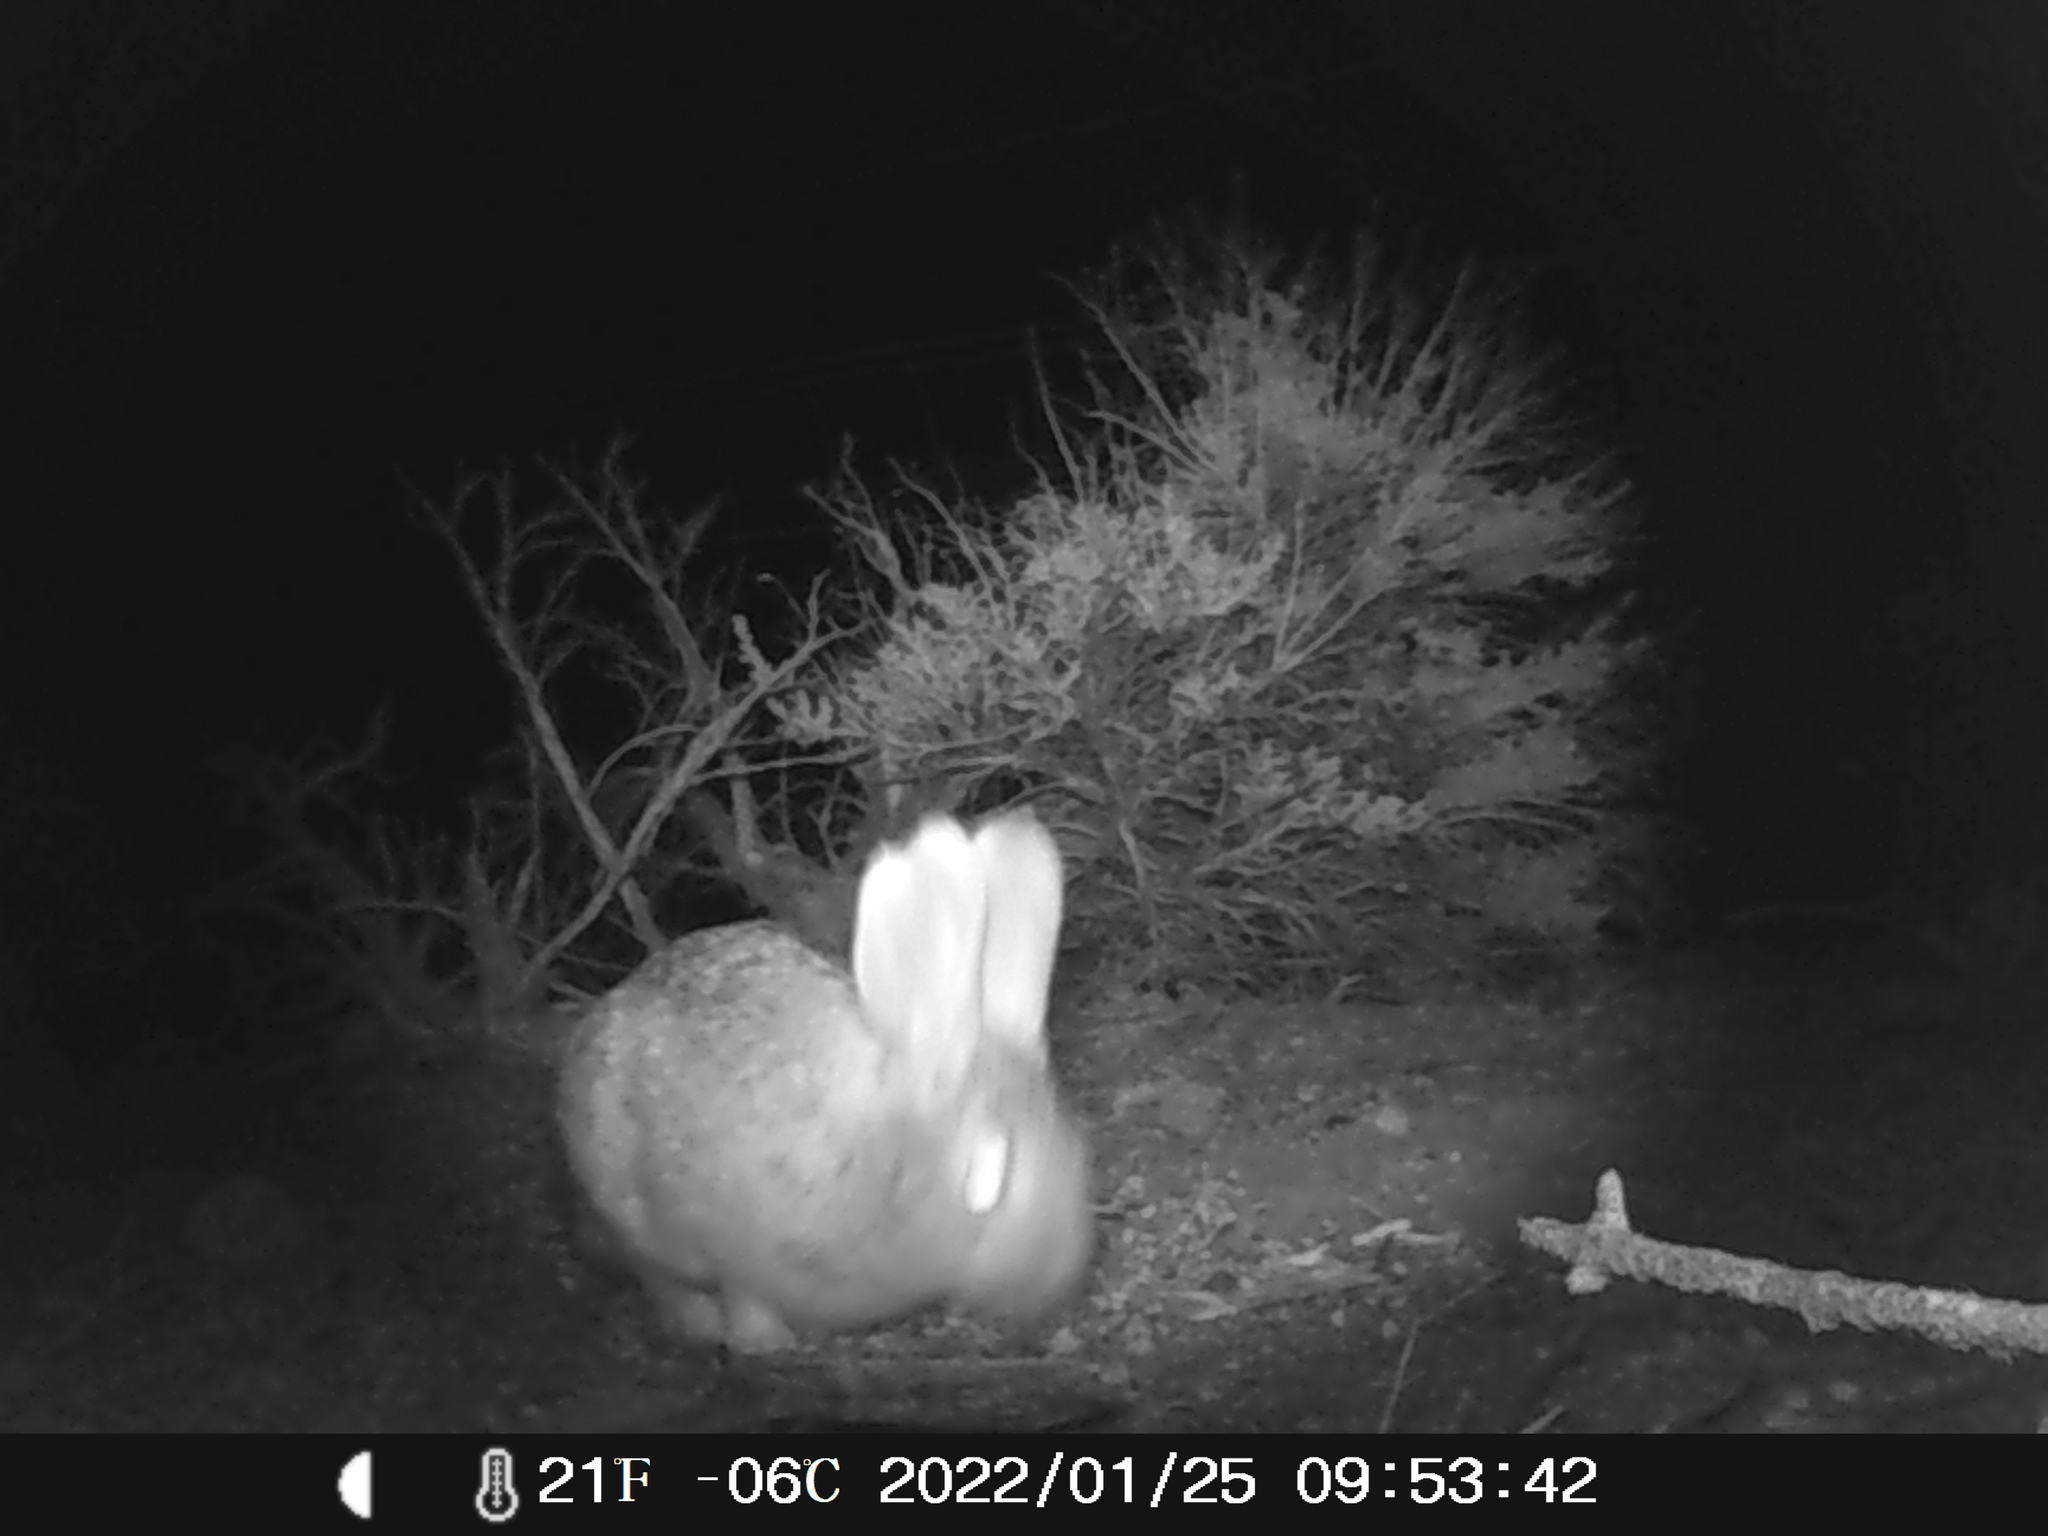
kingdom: Animalia
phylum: Chordata
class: Mammalia
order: Lagomorpha
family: Leporidae
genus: Sylvilagus
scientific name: Sylvilagus nuttallii
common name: Mountain cottontail
